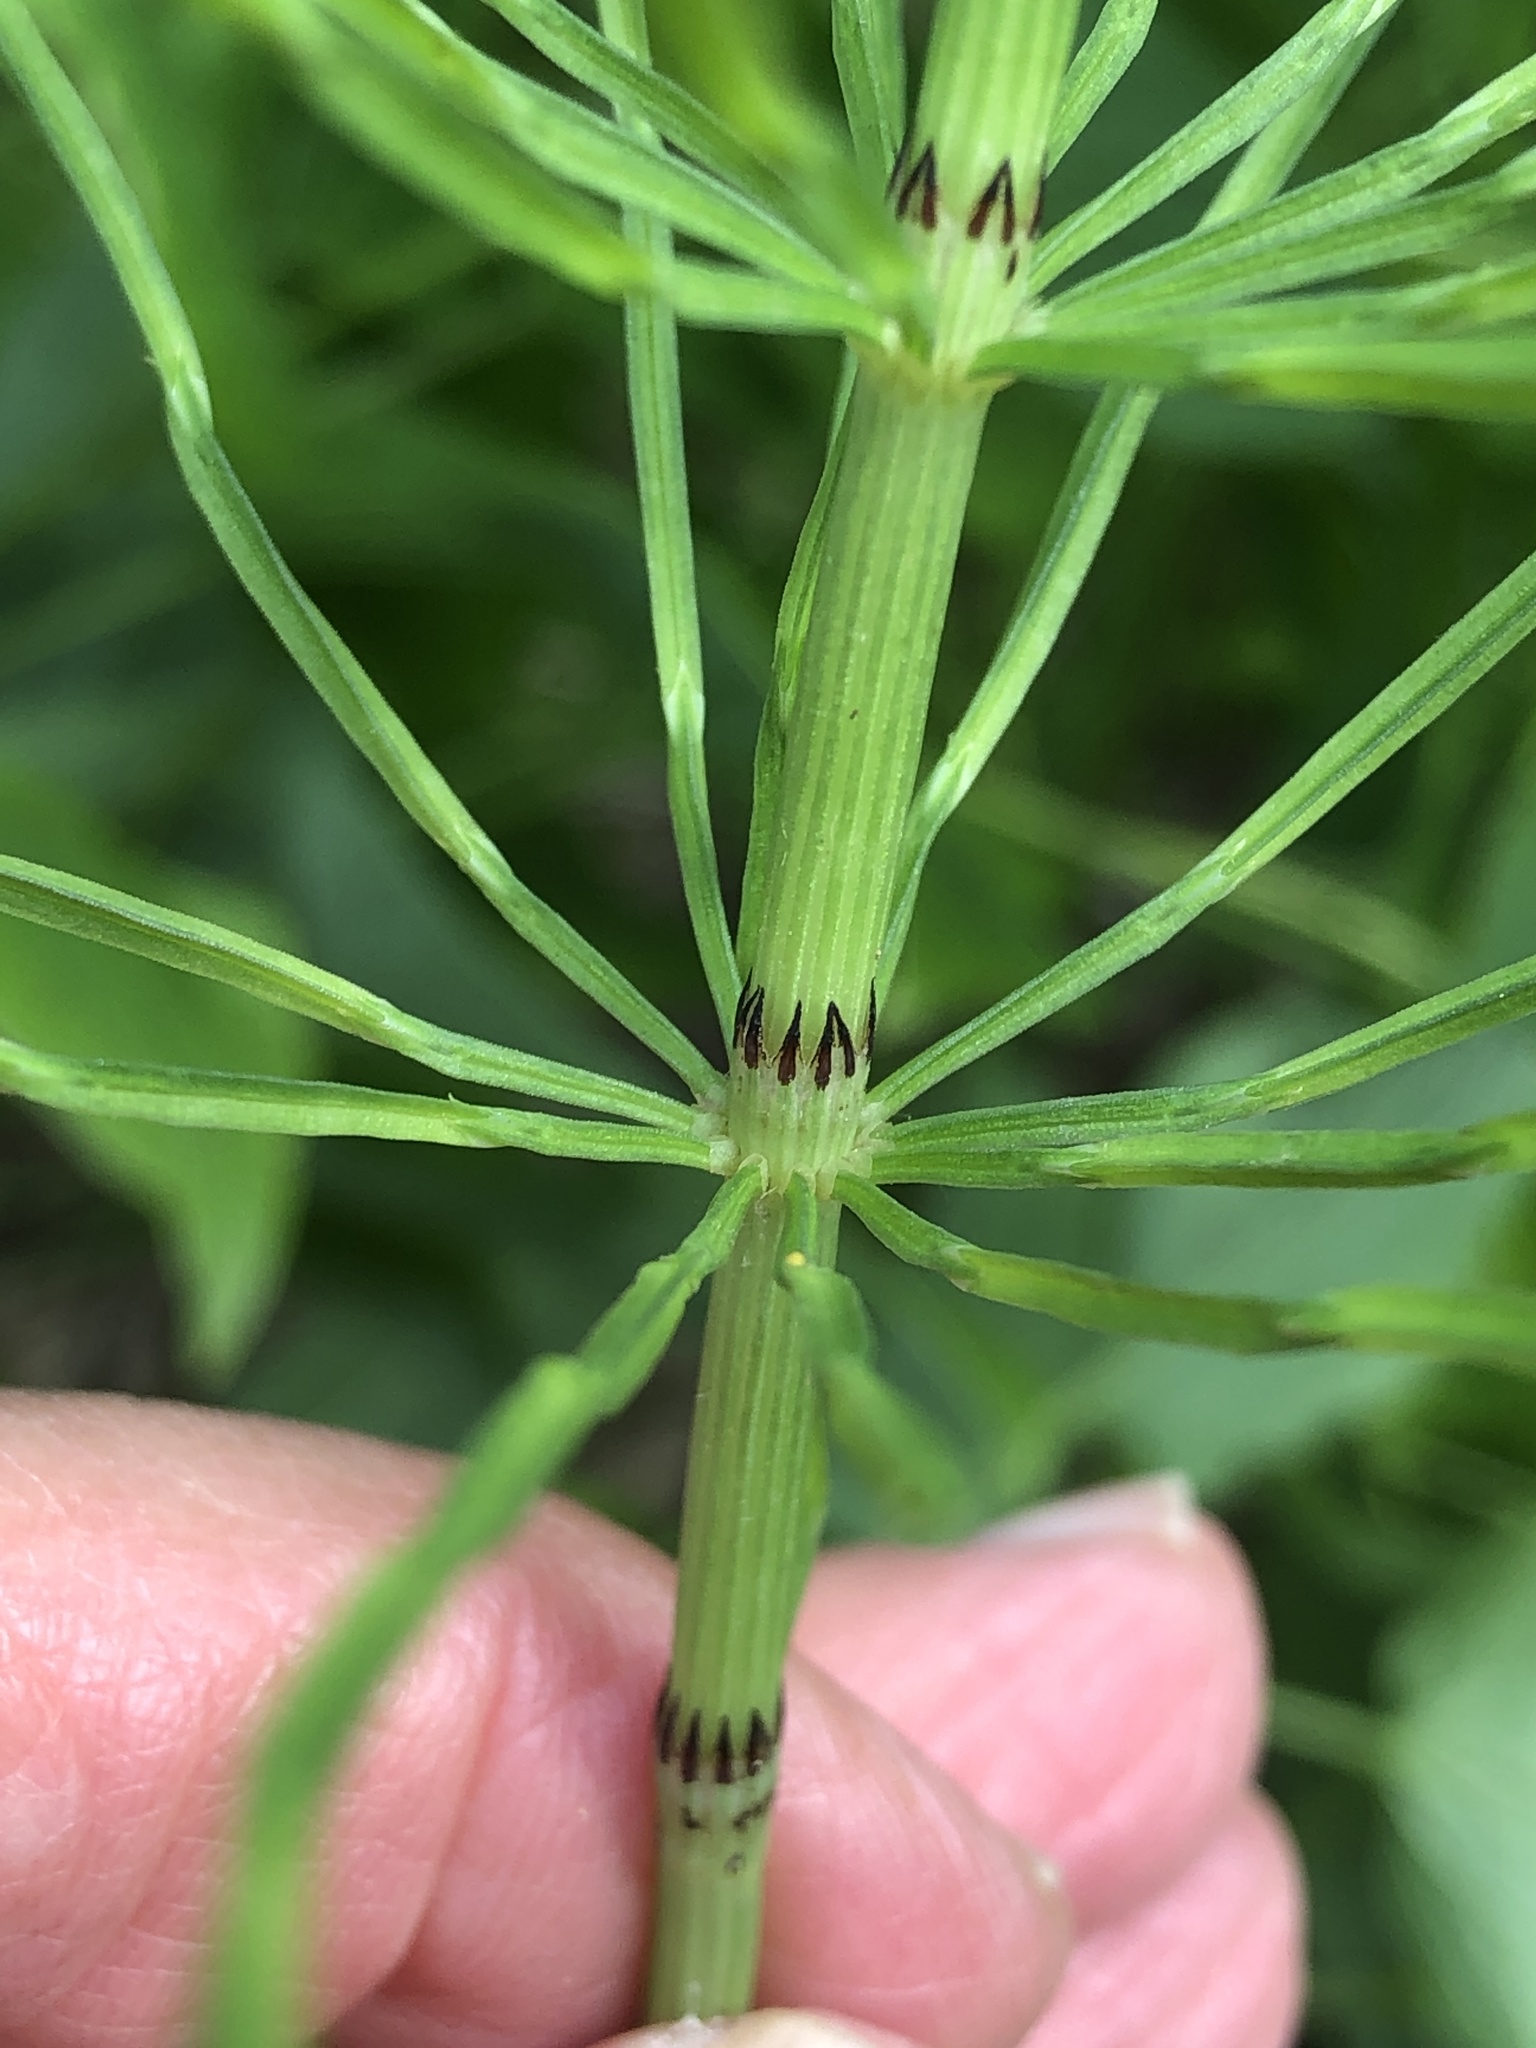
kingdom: Plantae
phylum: Tracheophyta
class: Polypodiopsida
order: Equisetales
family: Equisetaceae
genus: Equisetum
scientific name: Equisetum arvense
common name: Field horsetail
